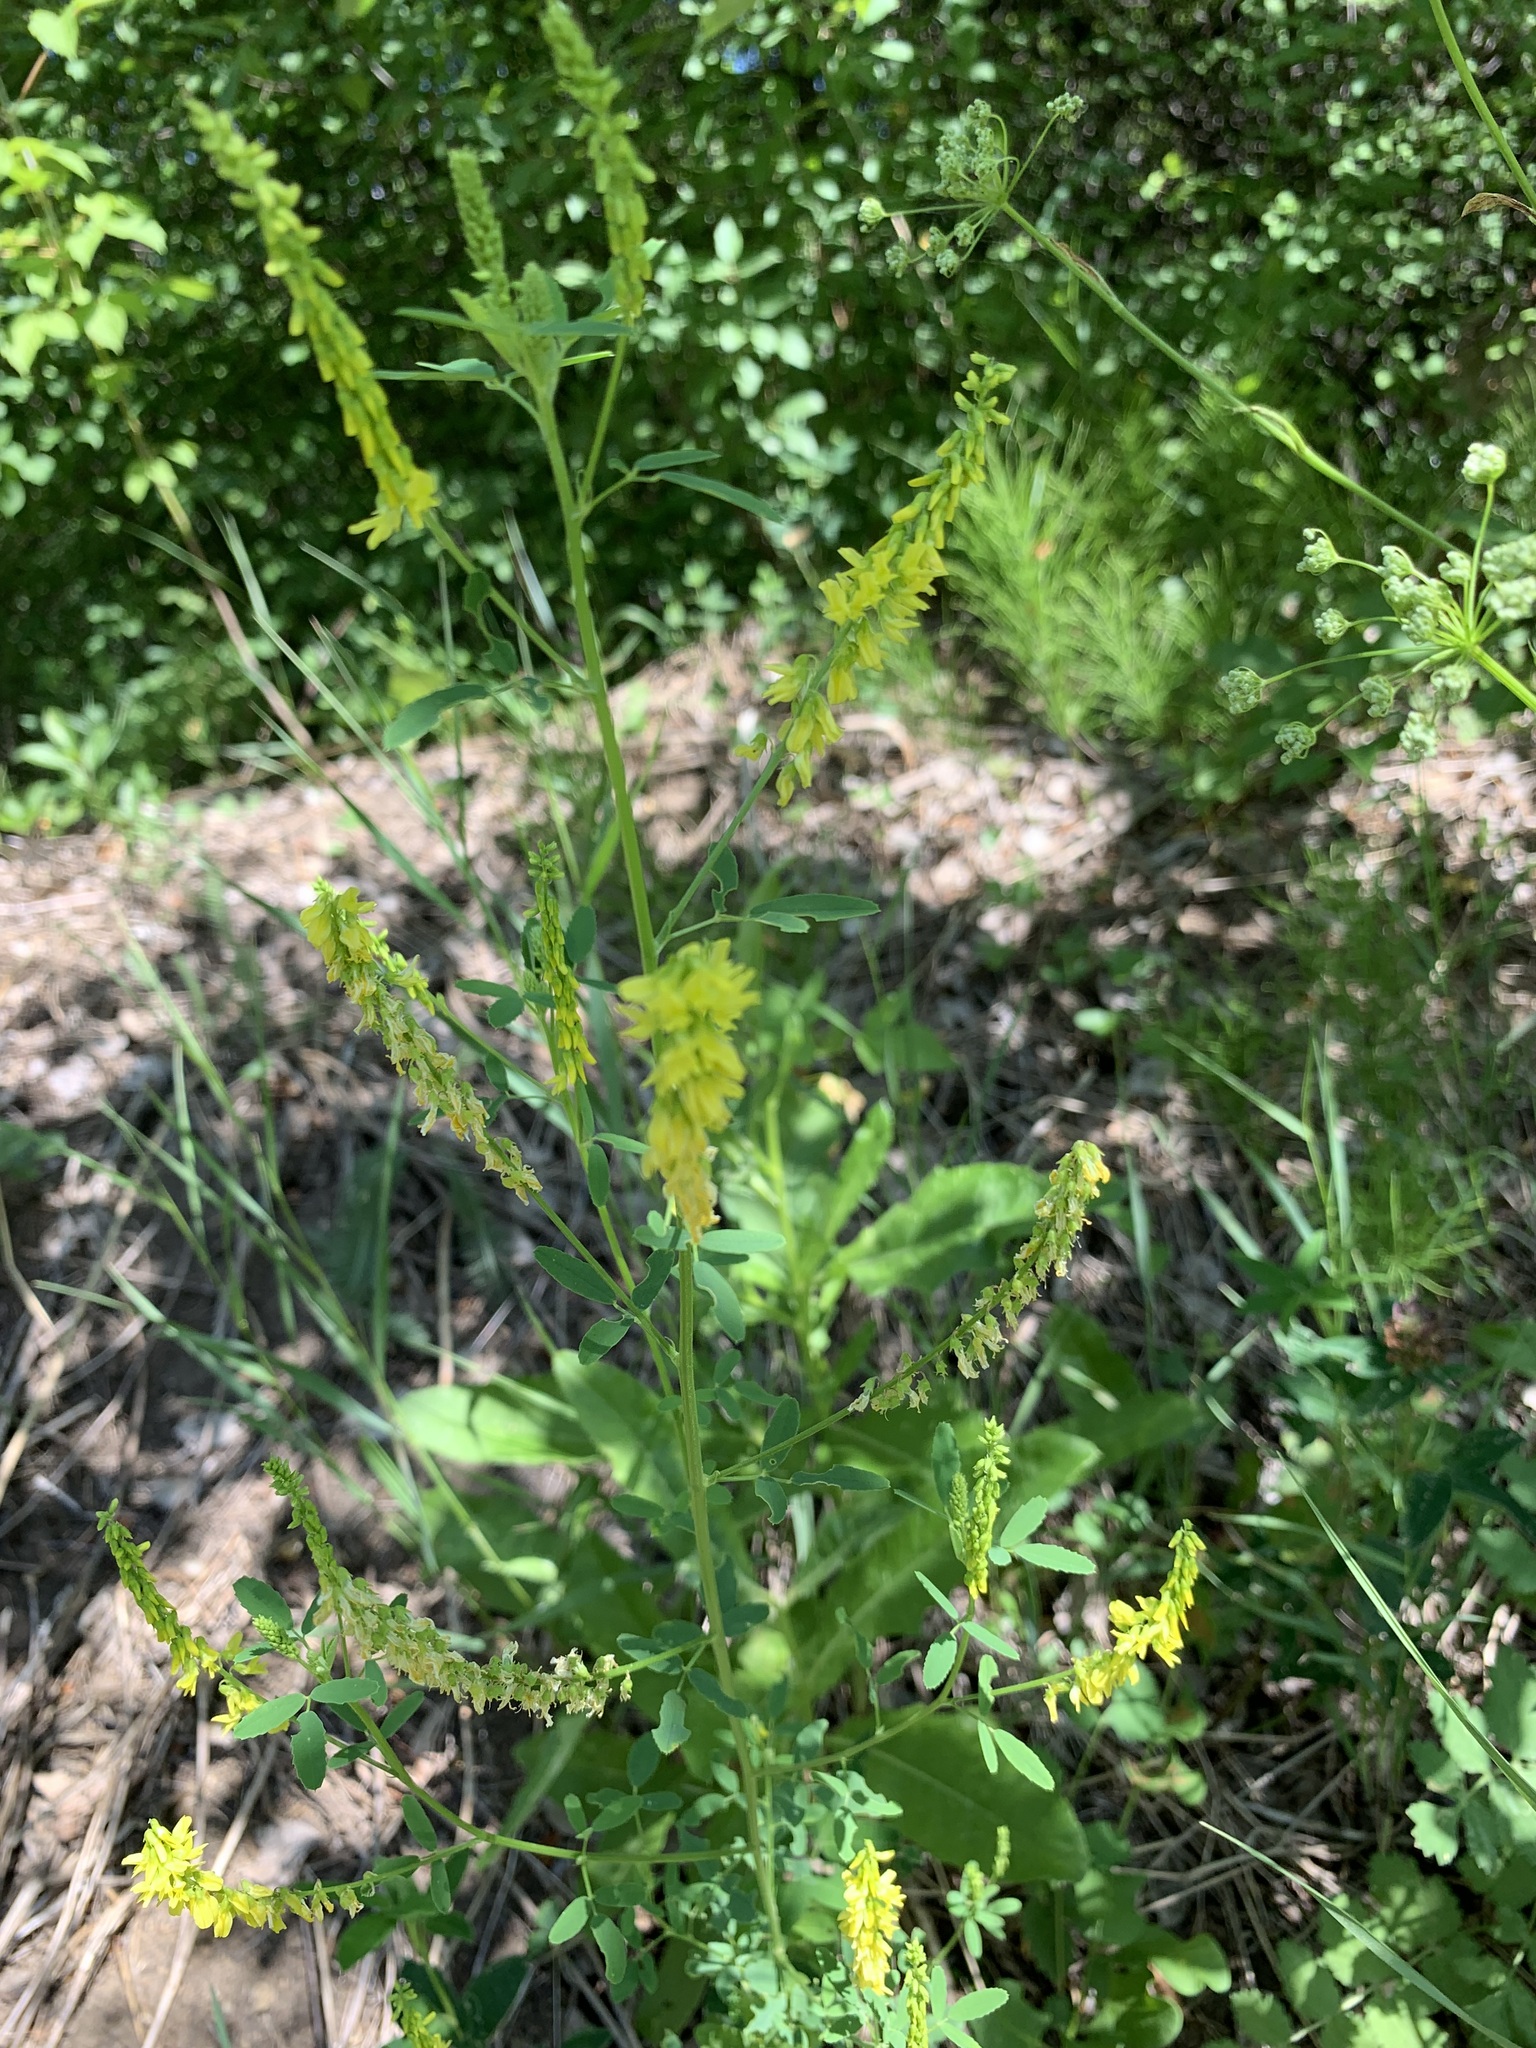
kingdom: Plantae
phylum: Tracheophyta
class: Magnoliopsida
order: Fabales
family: Fabaceae
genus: Melilotus
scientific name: Melilotus officinalis
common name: Sweetclover
